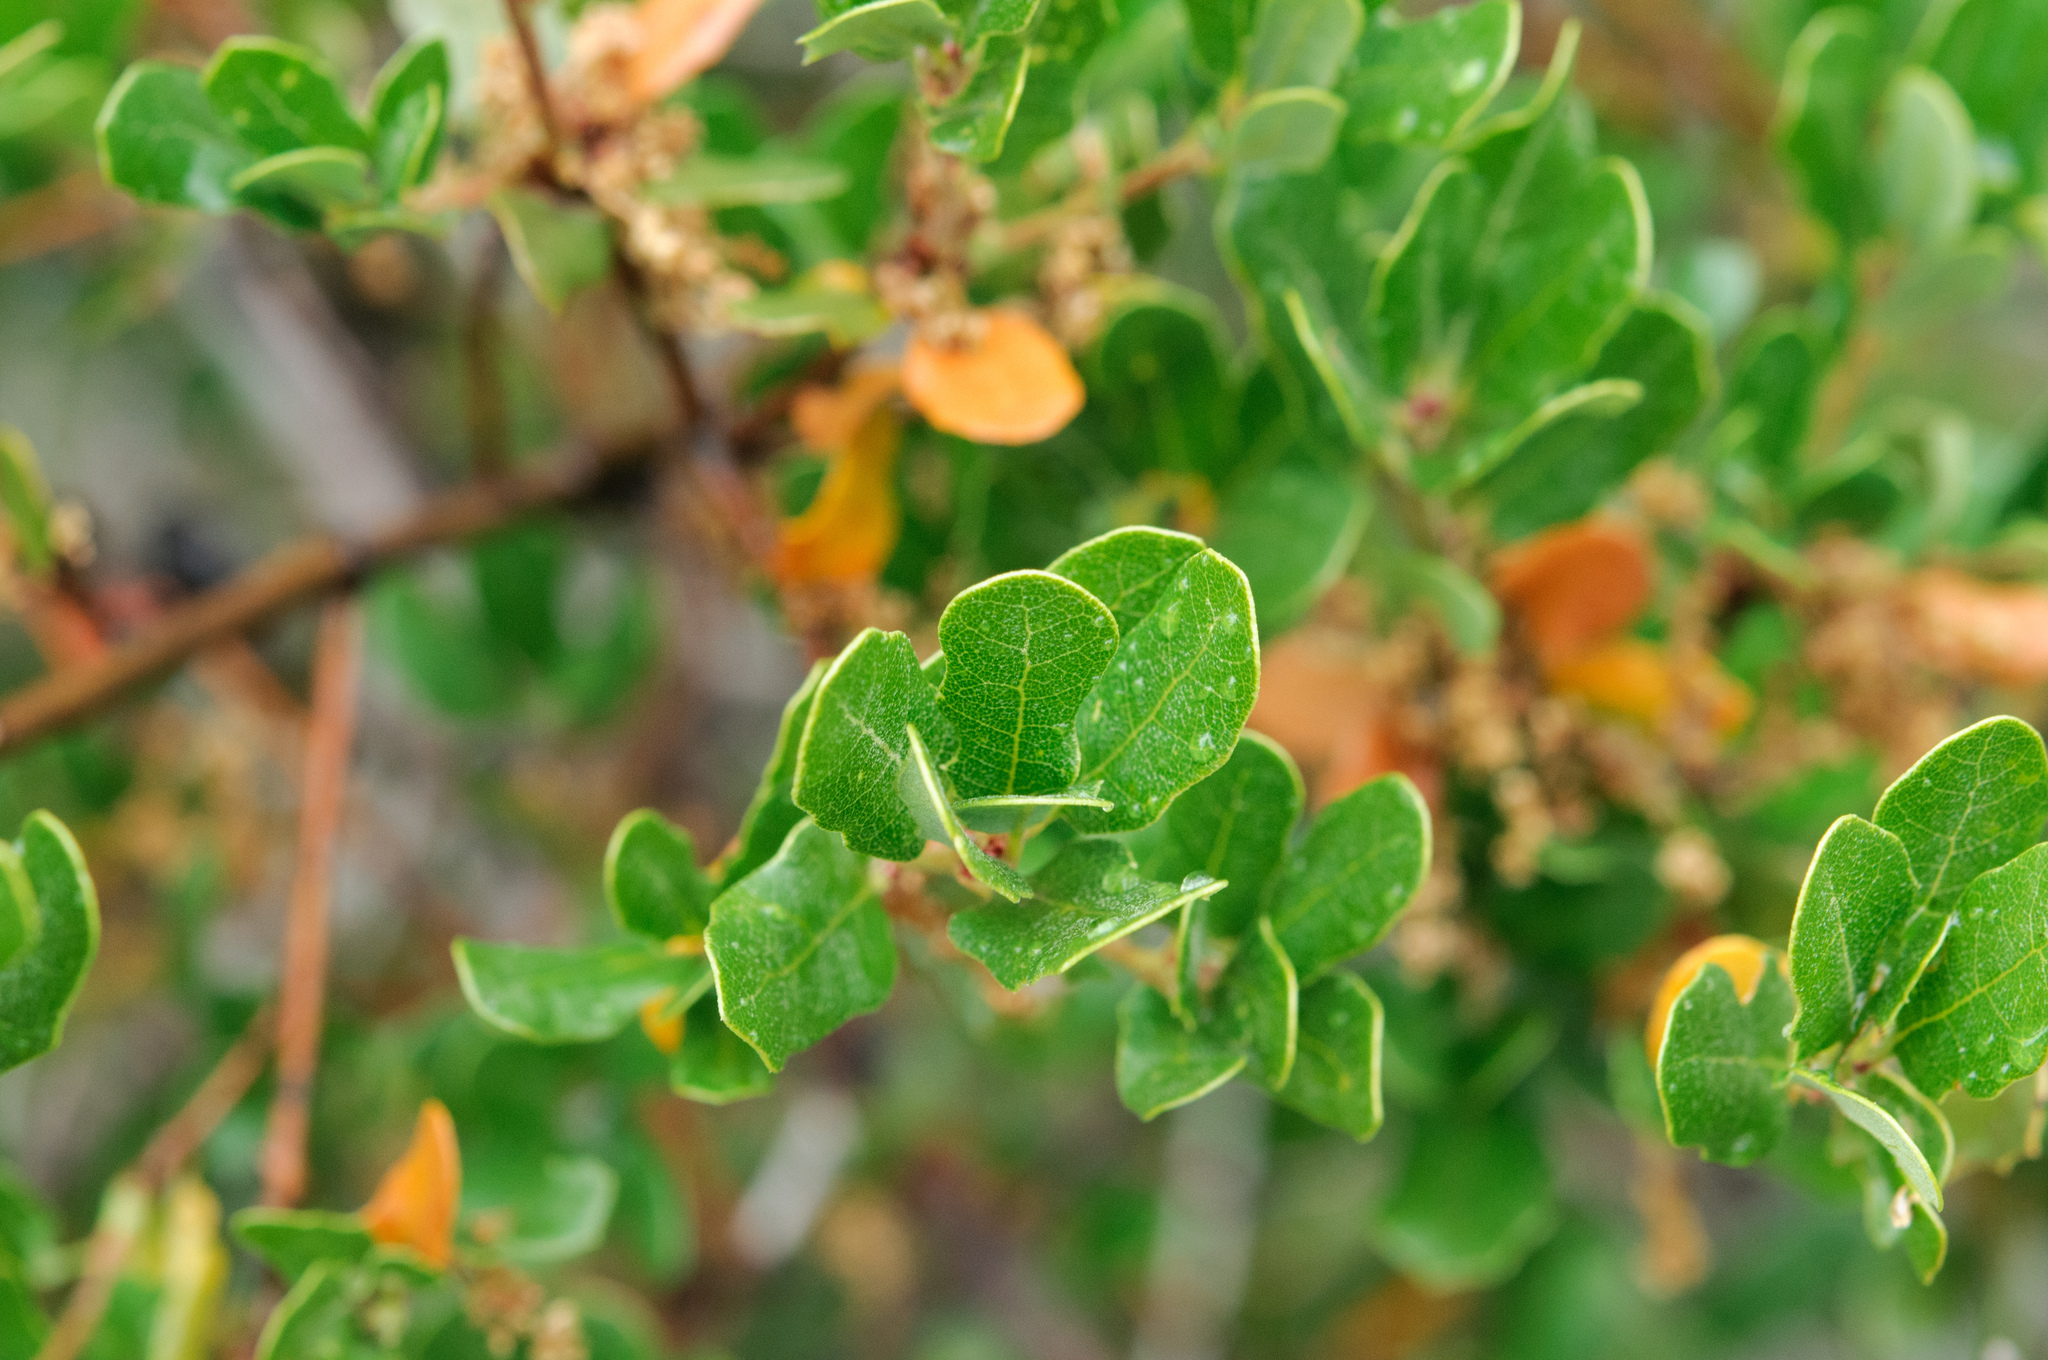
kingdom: Plantae
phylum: Tracheophyta
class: Magnoliopsida
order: Fagales
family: Fagaceae
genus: Quercus
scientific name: Quercus berberidifolia
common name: California scrub oak
